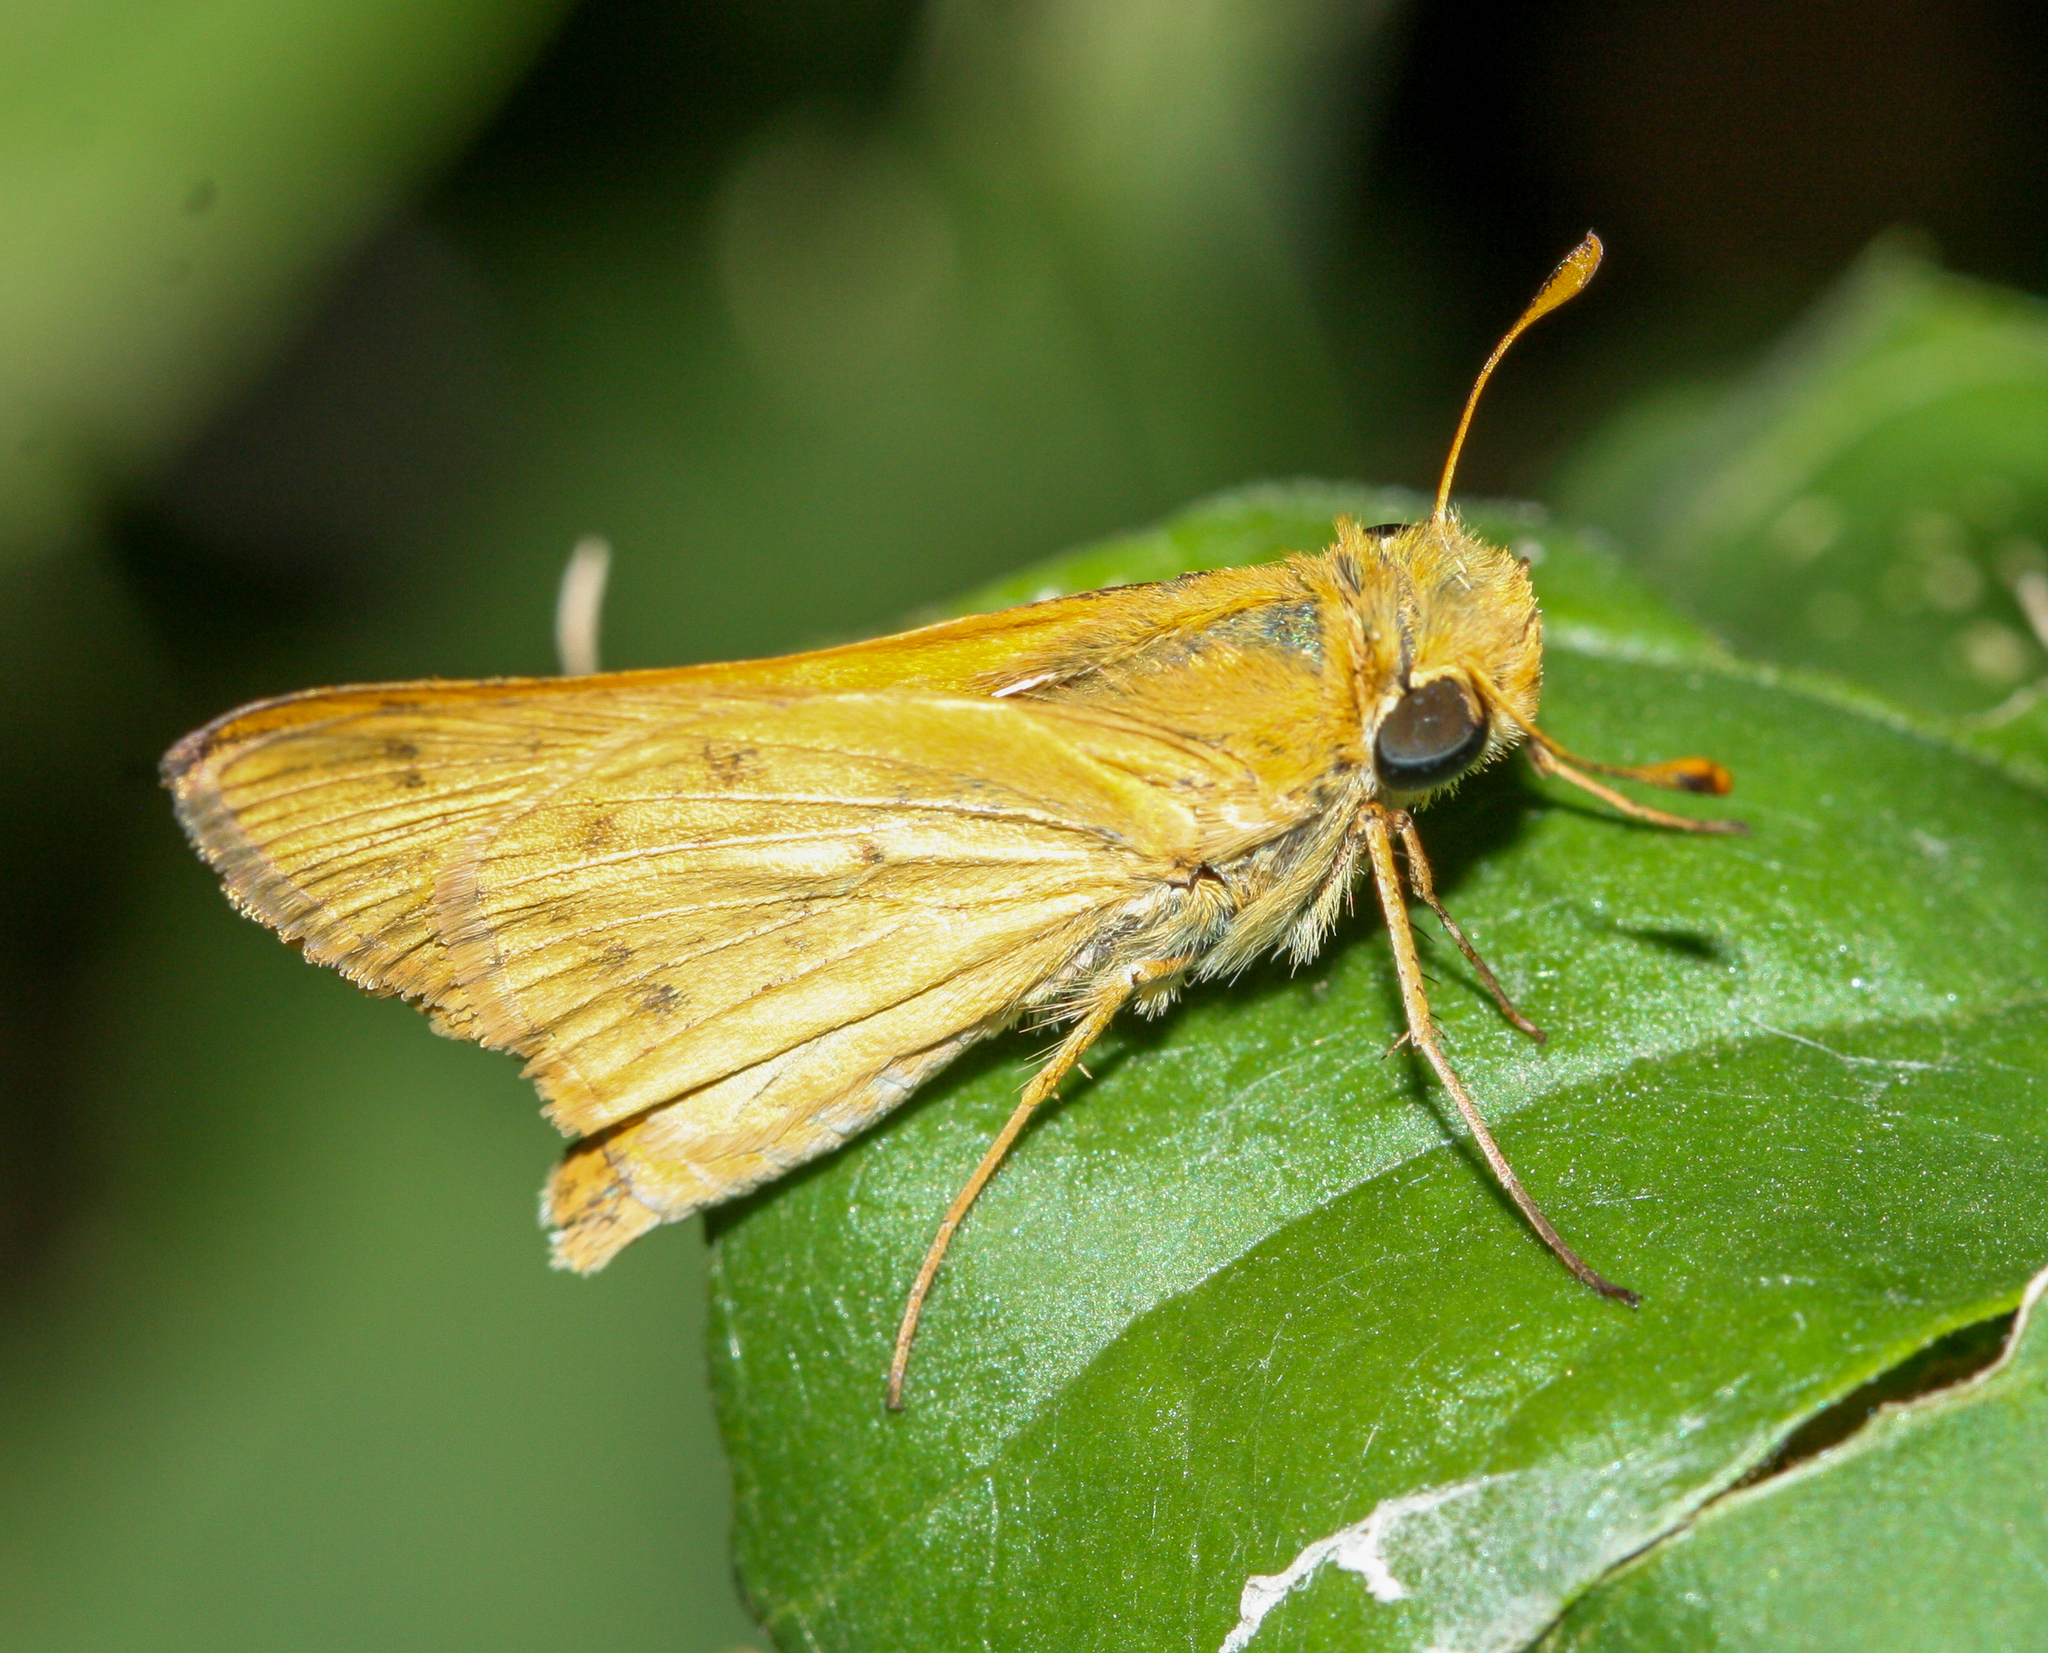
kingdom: Animalia
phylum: Arthropoda
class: Insecta
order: Lepidoptera
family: Hesperiidae
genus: Hylephila
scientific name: Hylephila phyleus
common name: Fiery skipper
